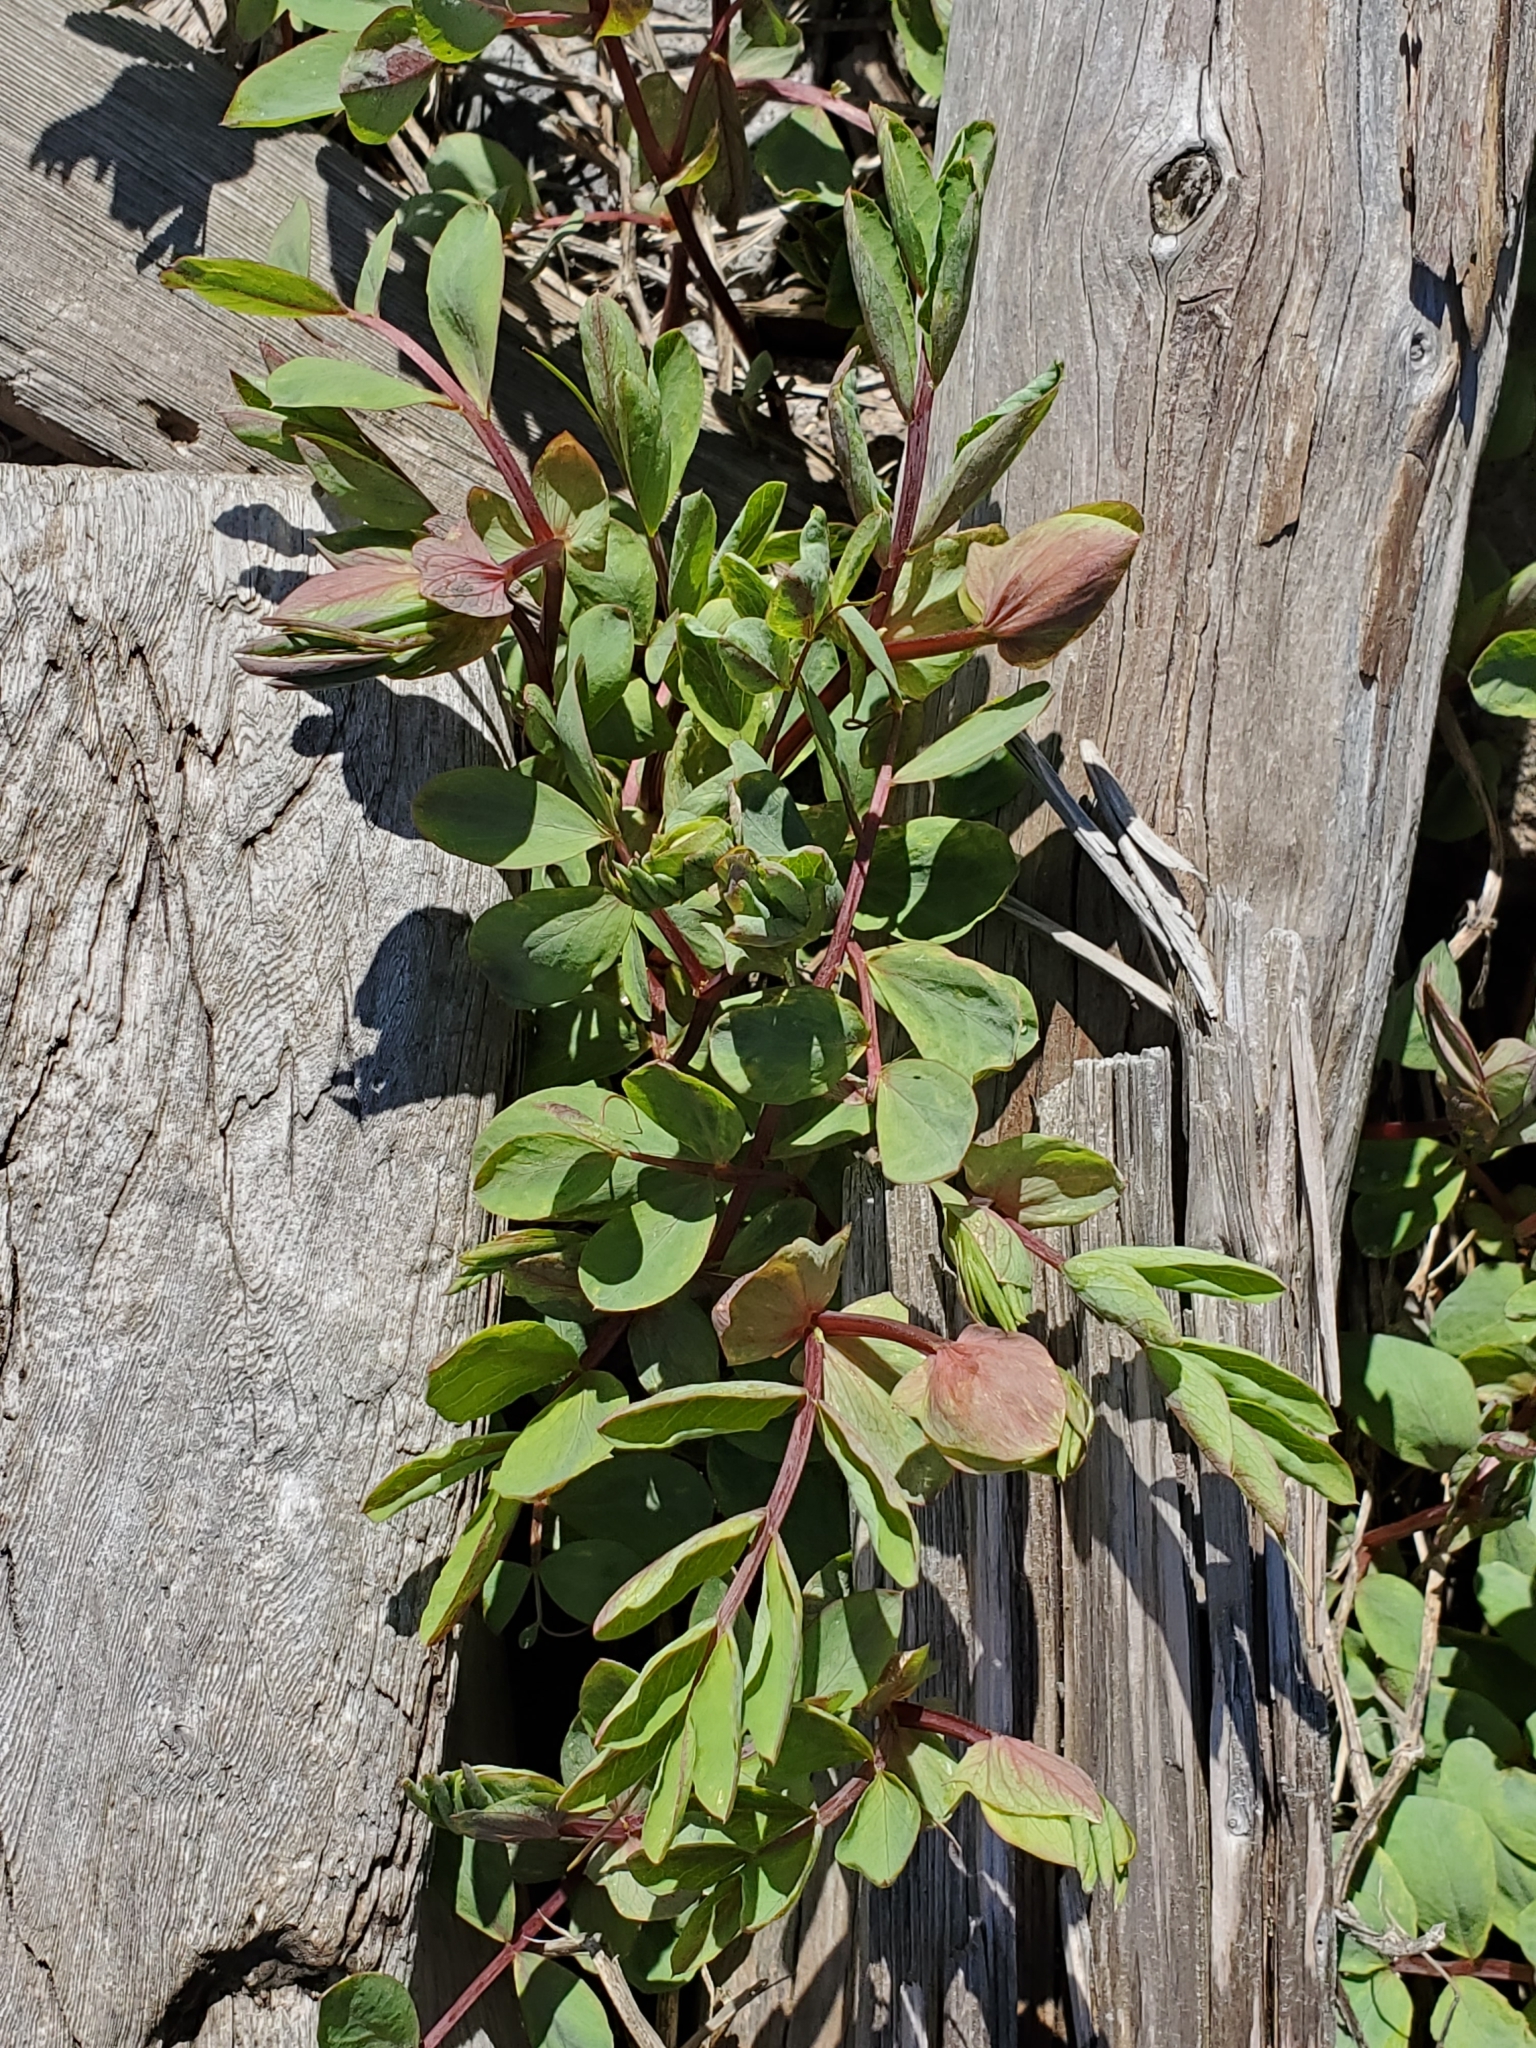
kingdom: Plantae
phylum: Tracheophyta
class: Magnoliopsida
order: Fabales
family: Fabaceae
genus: Lathyrus
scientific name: Lathyrus japonicus
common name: Sea pea
